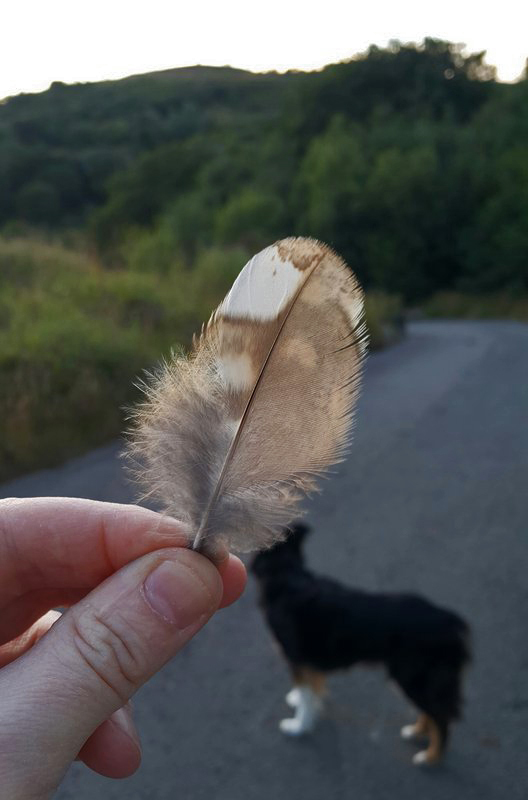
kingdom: Animalia
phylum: Chordata
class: Aves
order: Strigiformes
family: Strigidae
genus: Strix
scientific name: Strix aluco
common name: Tawny owl
